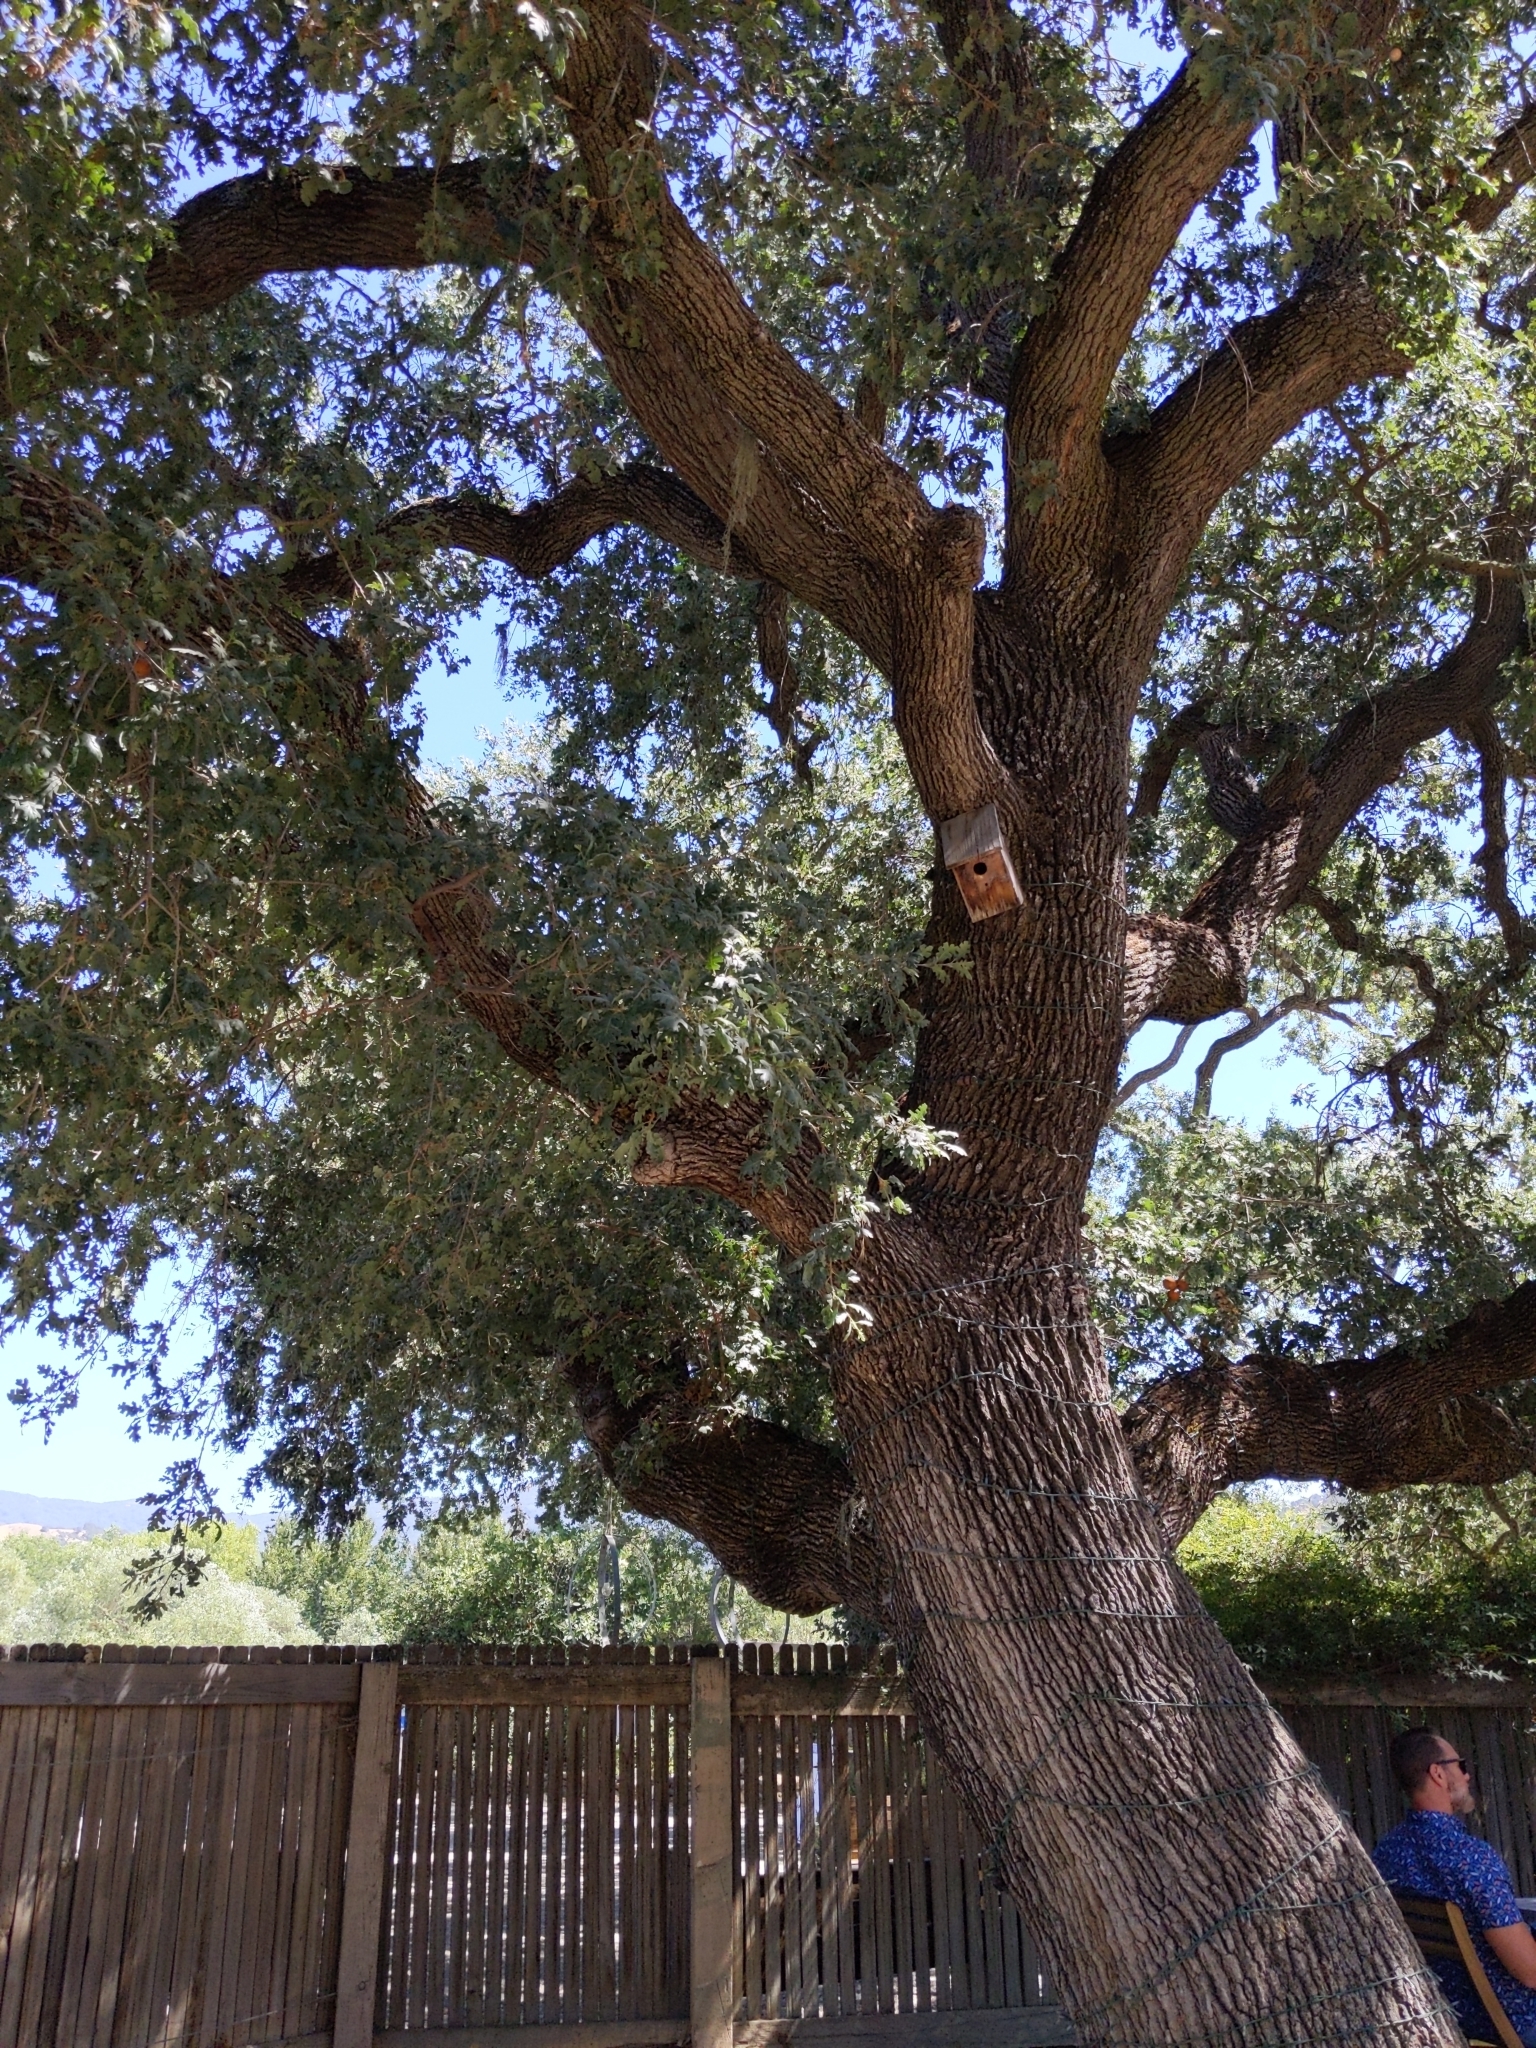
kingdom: Plantae
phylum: Tracheophyta
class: Magnoliopsida
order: Fagales
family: Fagaceae
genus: Quercus
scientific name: Quercus lobata
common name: Valley oak
